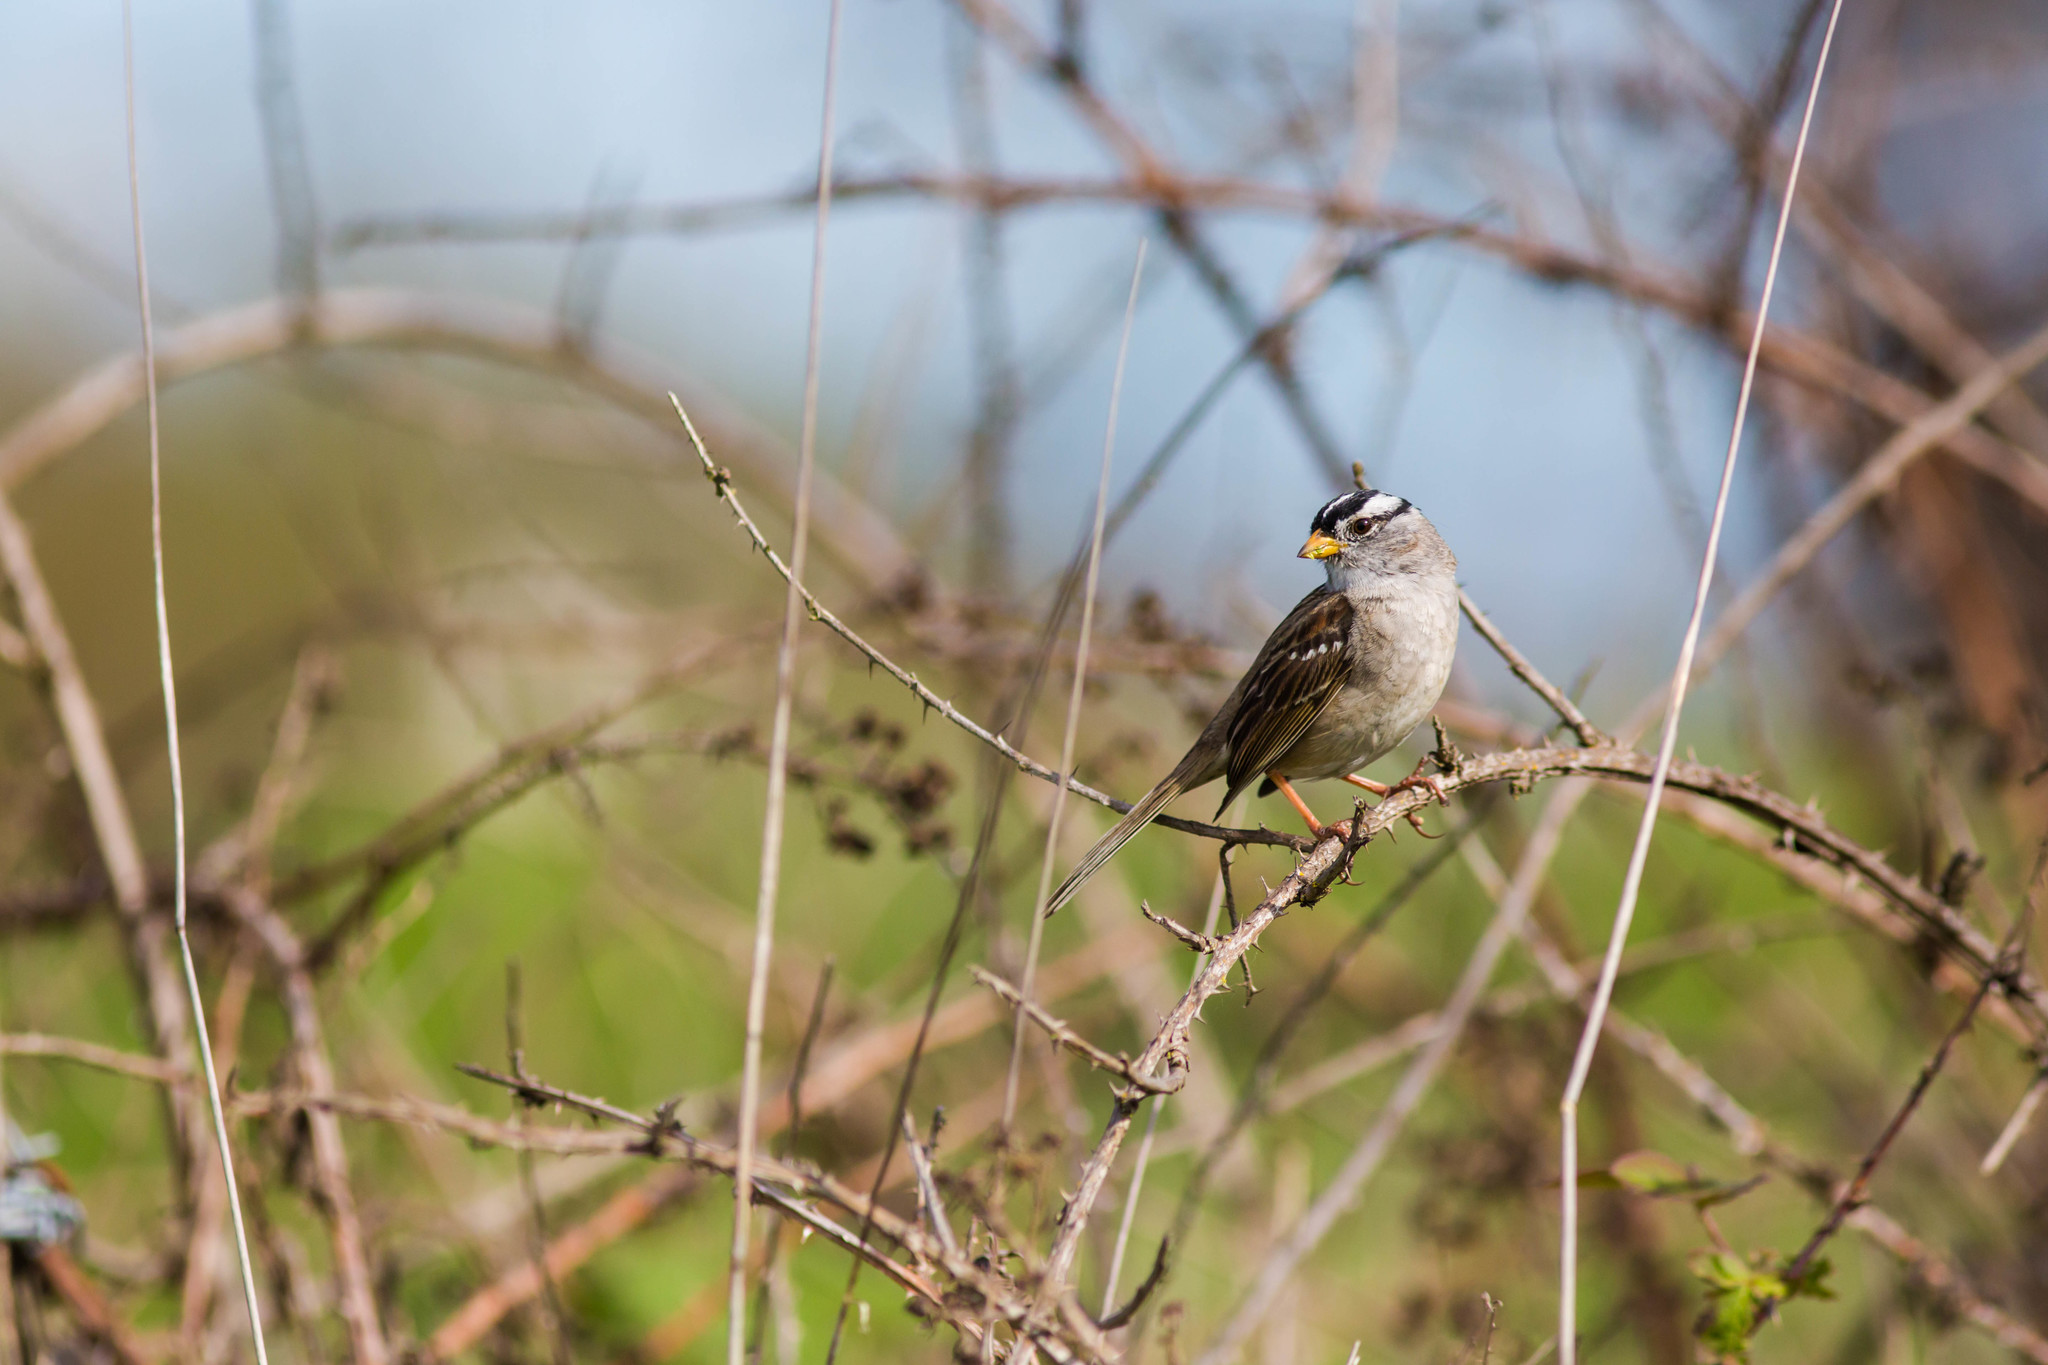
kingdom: Animalia
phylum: Chordata
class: Aves
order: Passeriformes
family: Passerellidae
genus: Zonotrichia
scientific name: Zonotrichia leucophrys
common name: White-crowned sparrow
